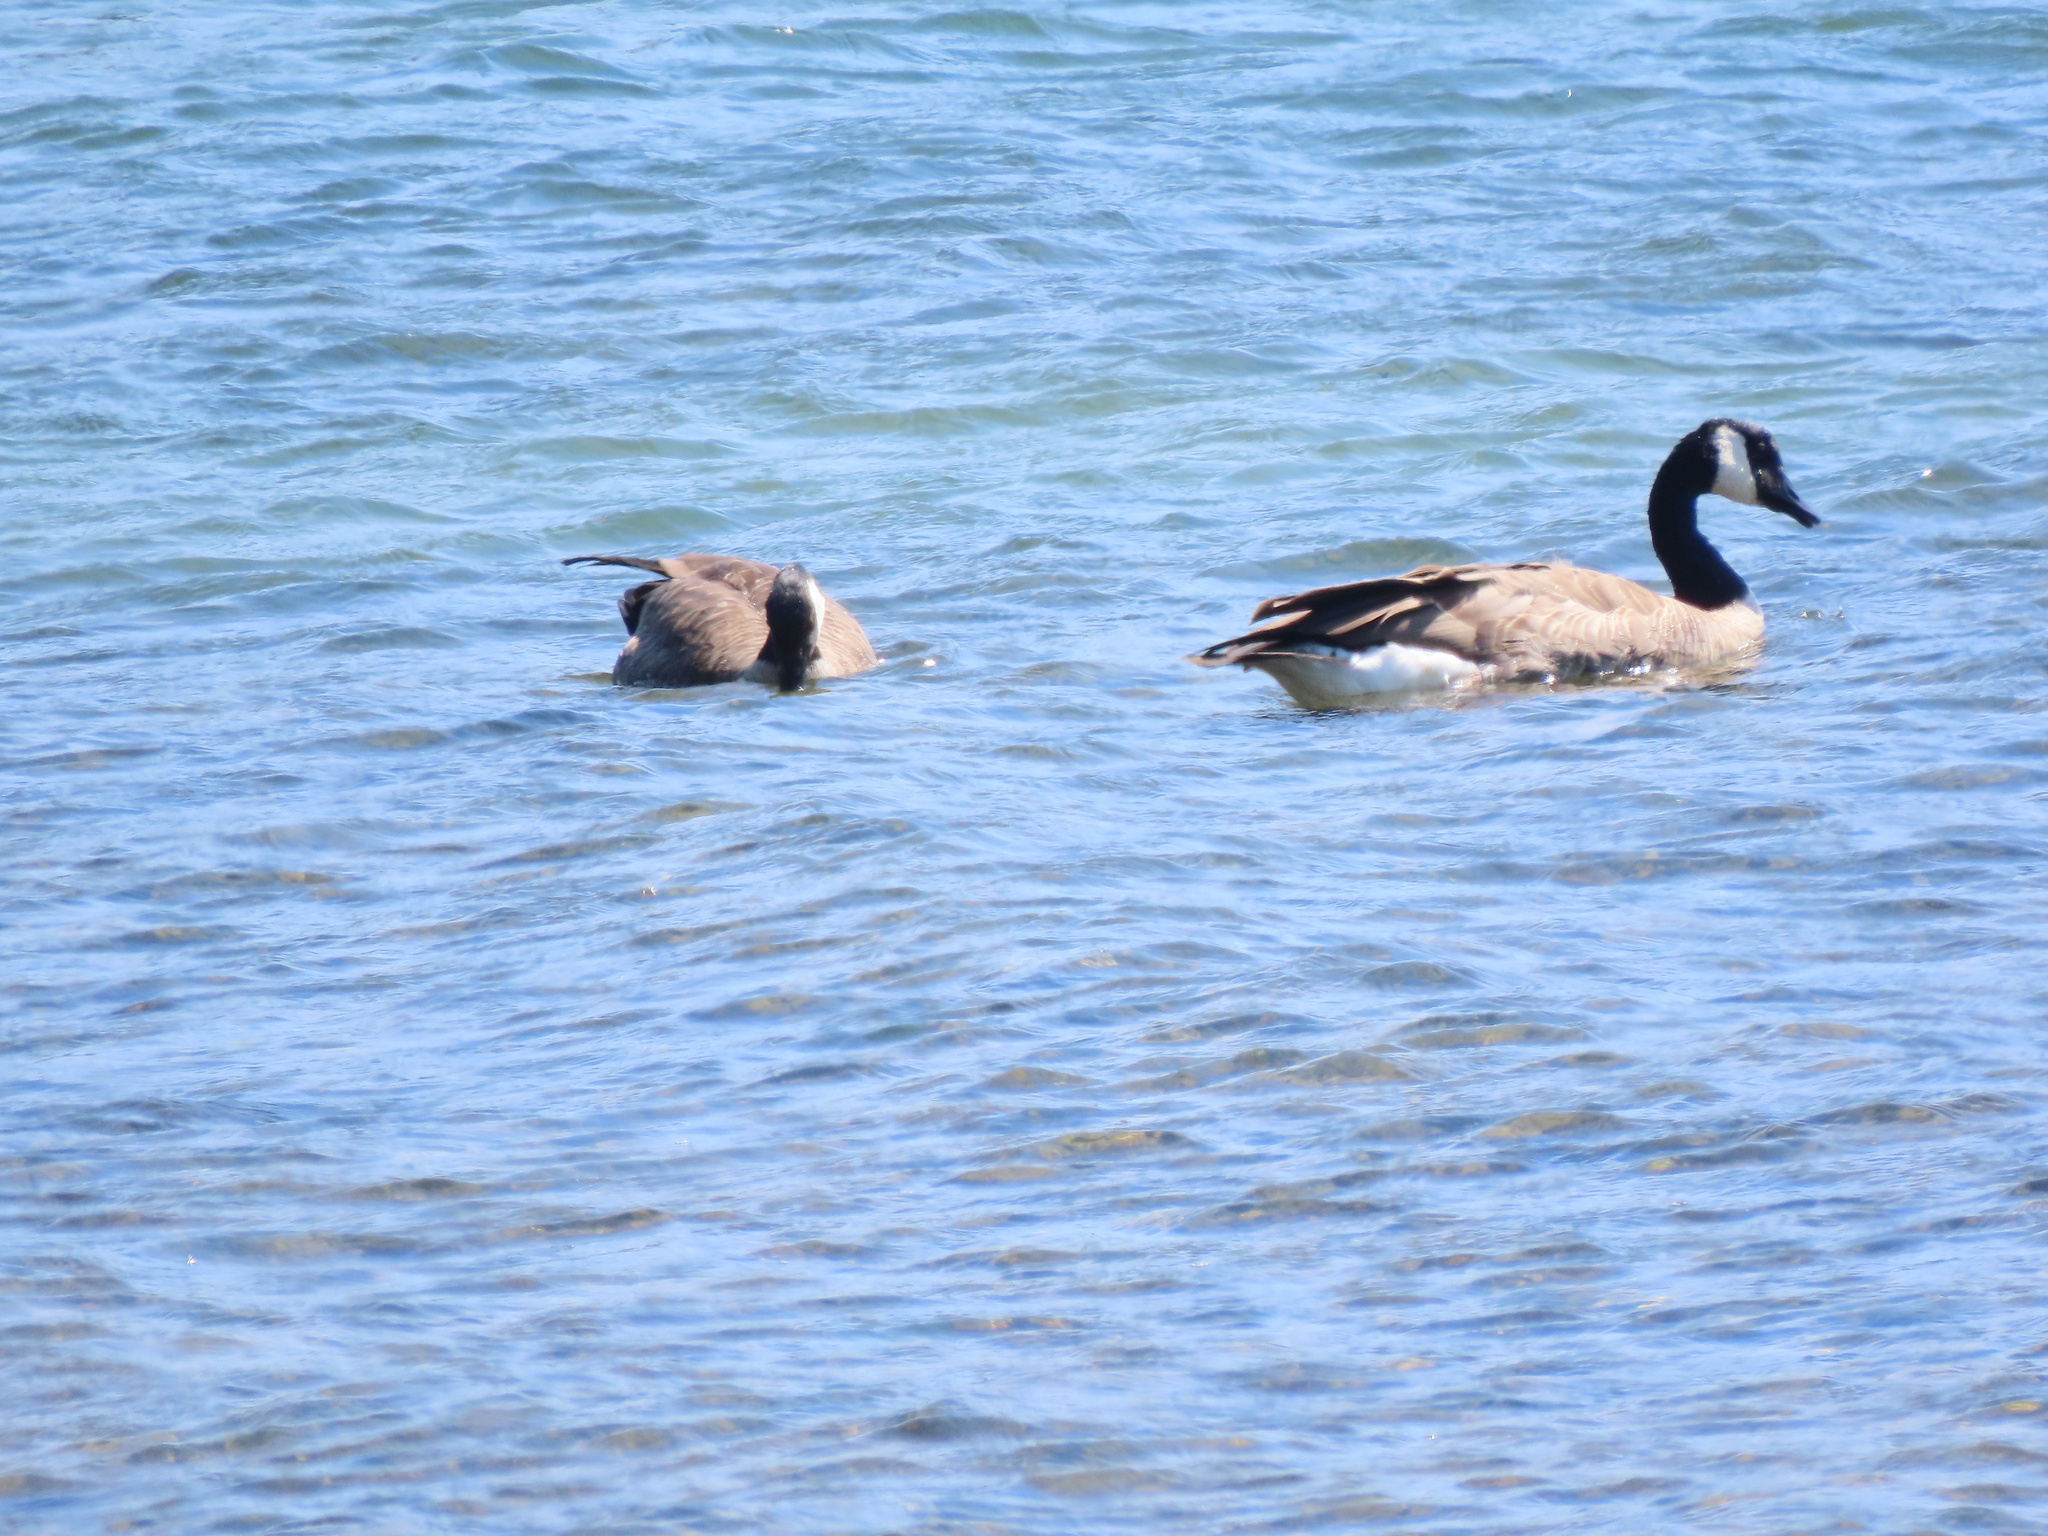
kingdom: Animalia
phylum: Chordata
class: Aves
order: Anseriformes
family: Anatidae
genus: Branta
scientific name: Branta canadensis
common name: Canada goose
